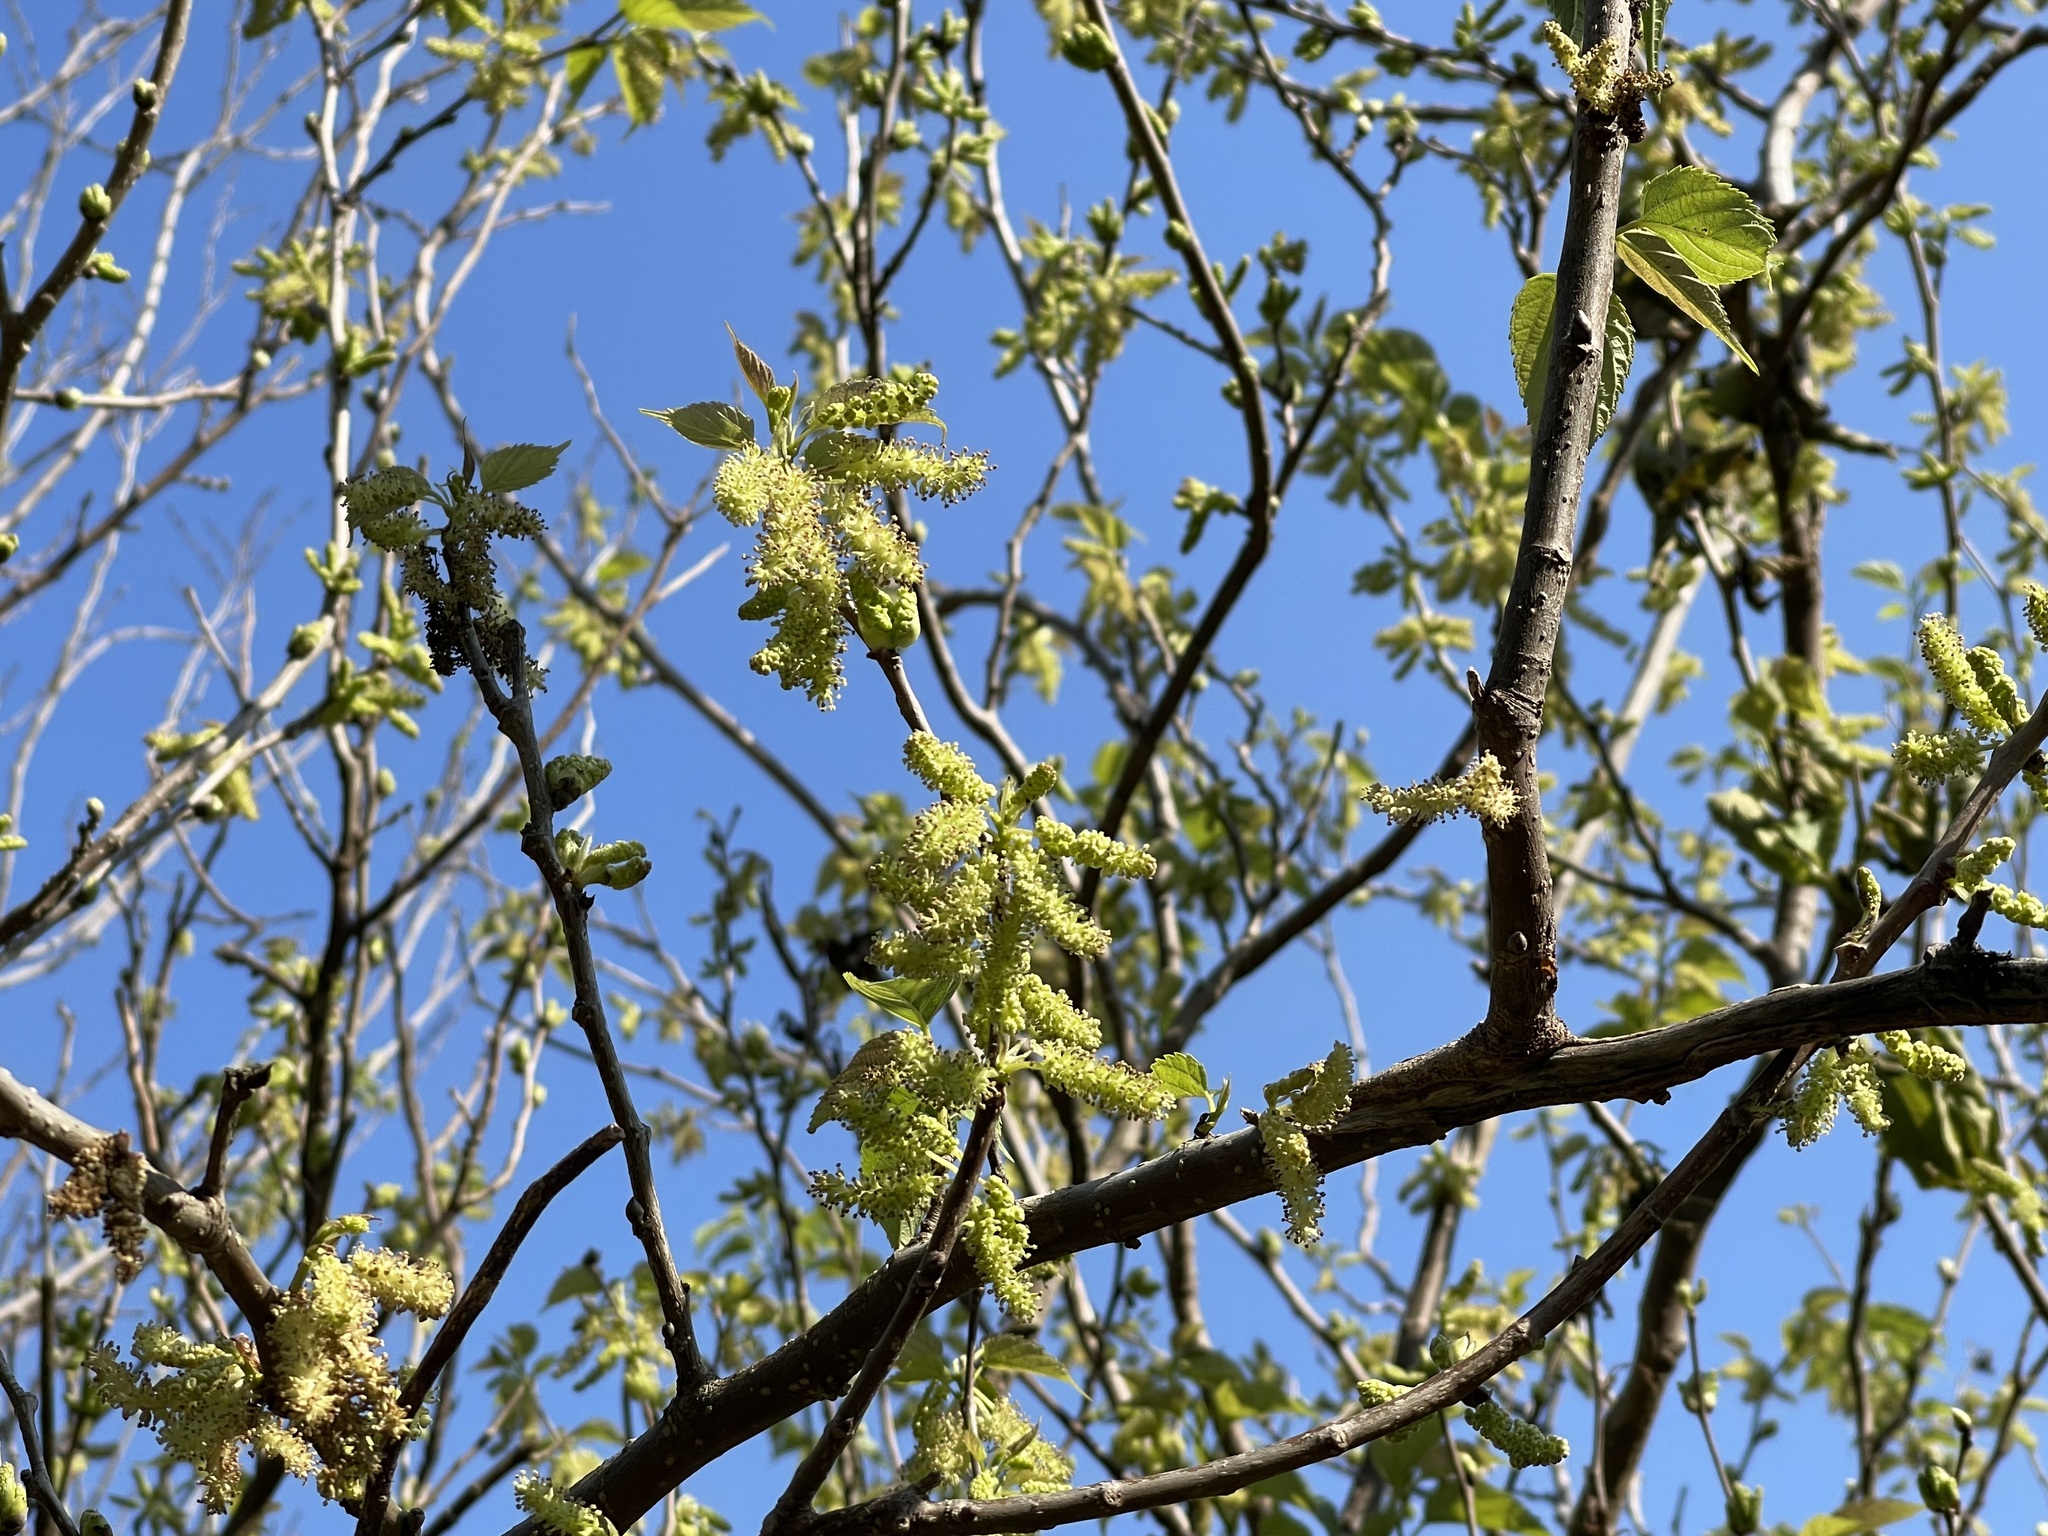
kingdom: Plantae
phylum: Tracheophyta
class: Magnoliopsida
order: Rosales
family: Moraceae
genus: Morus
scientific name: Morus indica
